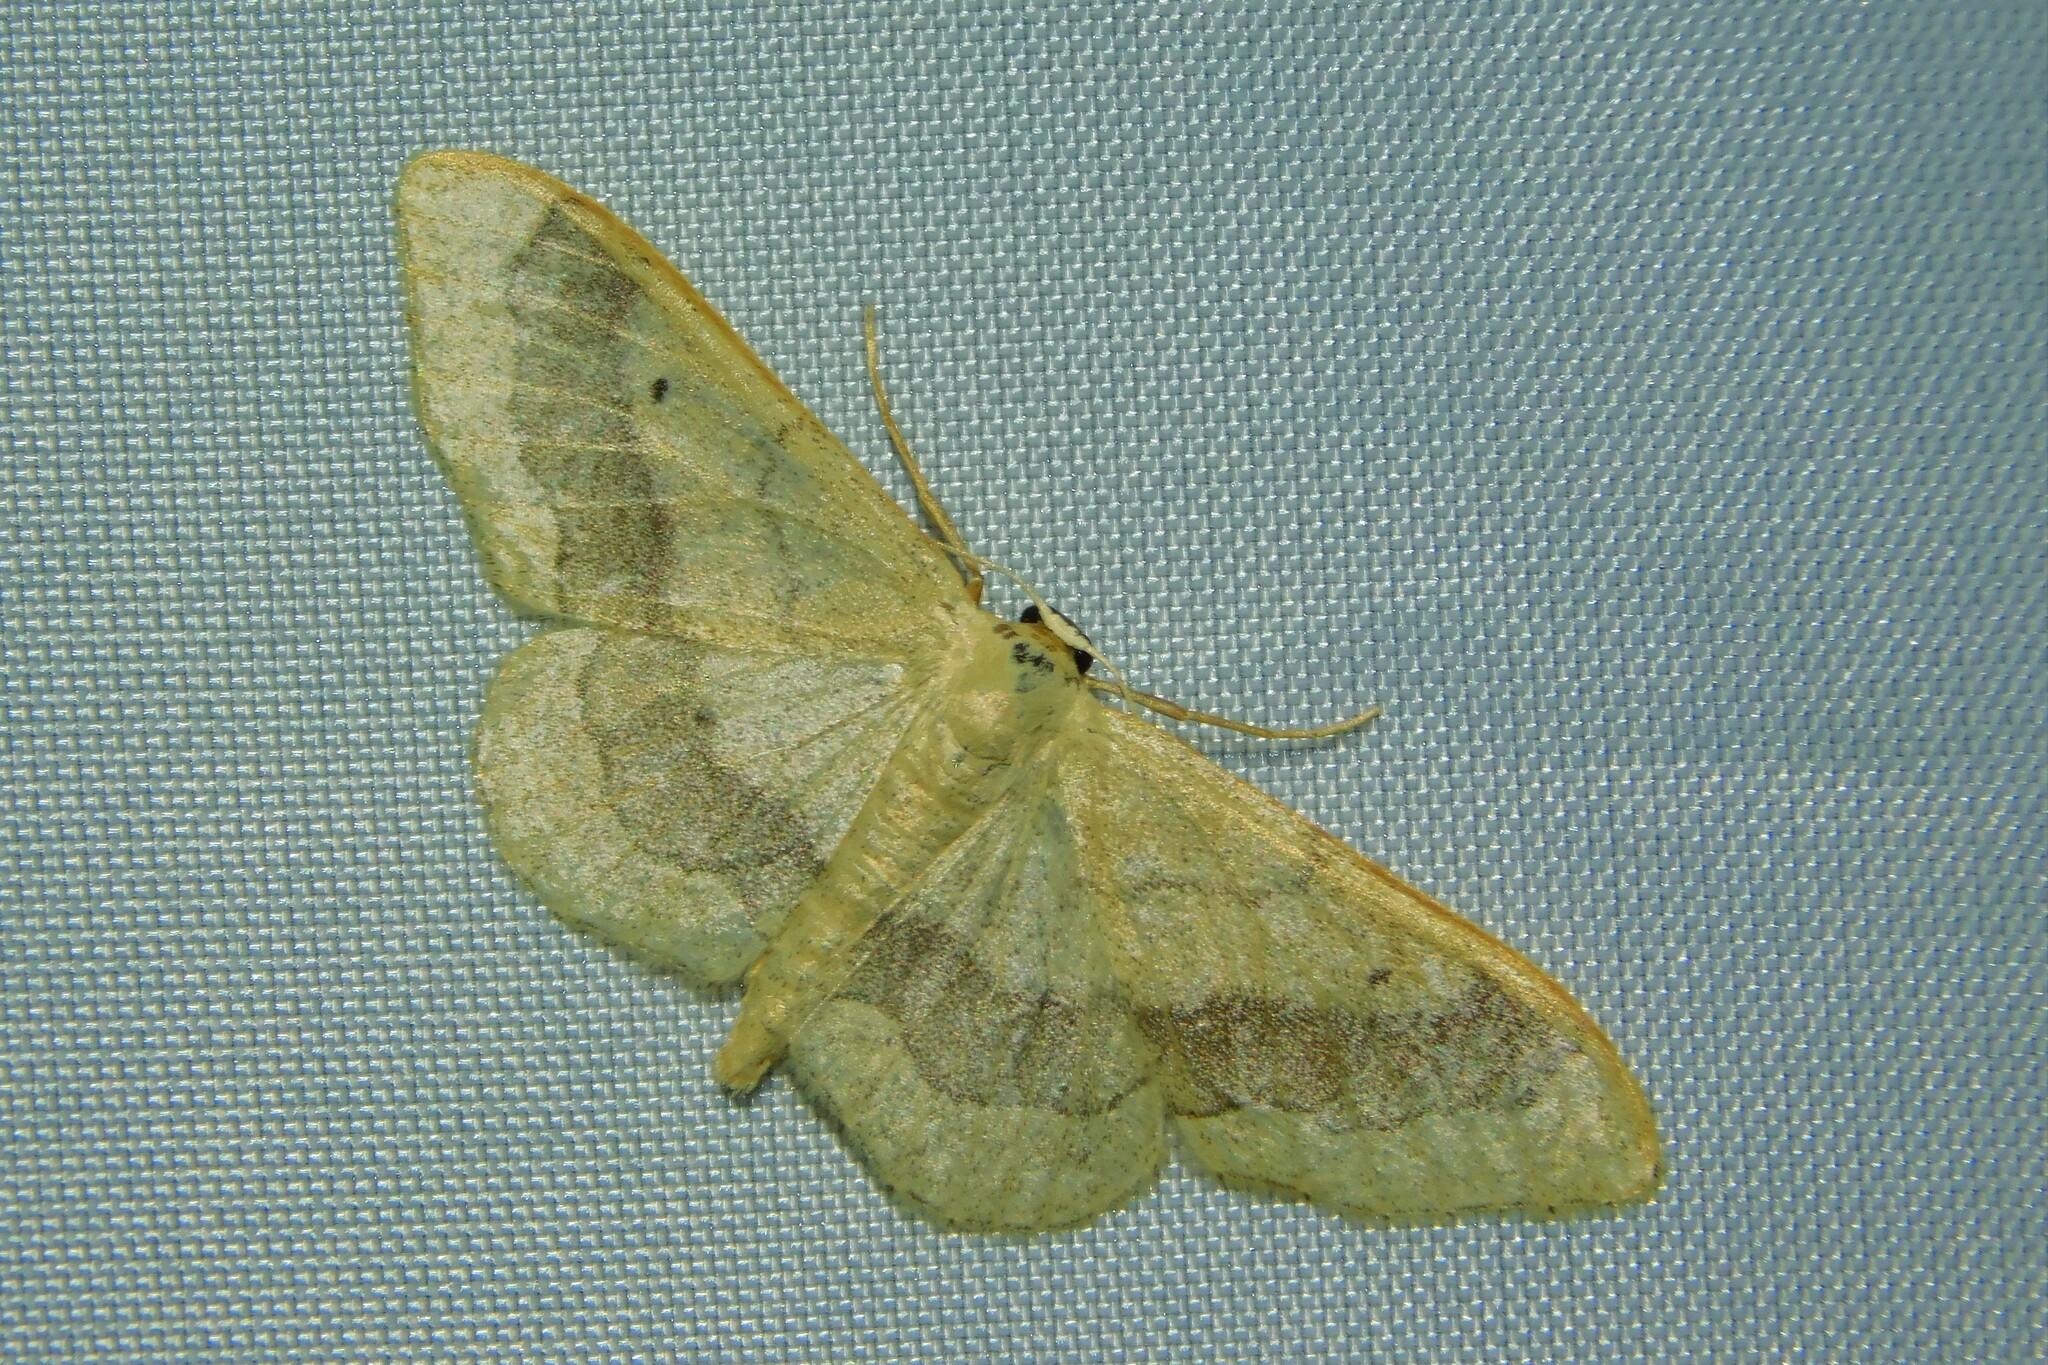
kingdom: Animalia
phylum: Arthropoda
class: Insecta
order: Lepidoptera
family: Geometridae
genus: Idaea
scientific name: Idaea aversata
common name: Riband wave
